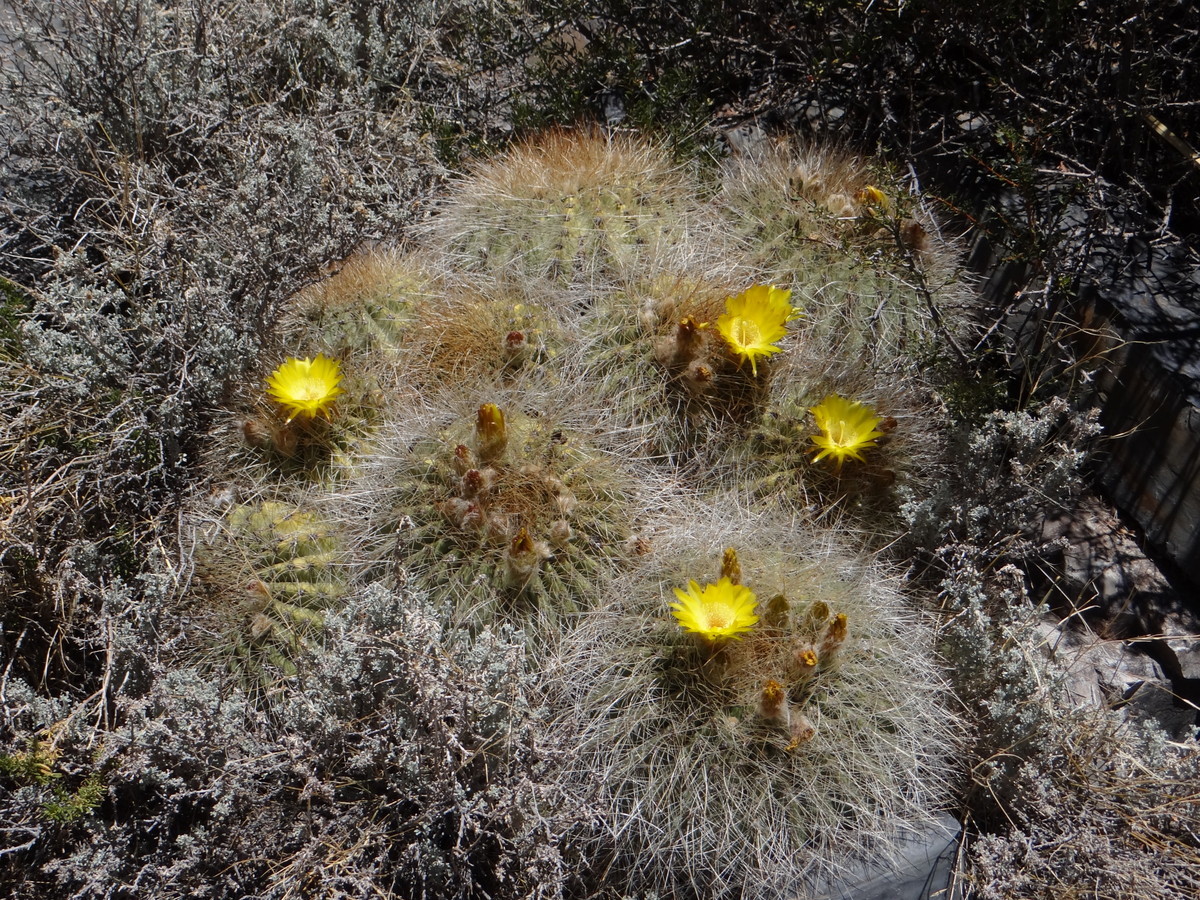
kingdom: Plantae
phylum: Tracheophyta
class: Magnoliopsida
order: Caryophyllales
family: Cactaceae
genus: Soehrensia
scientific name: Soehrensia formosa
